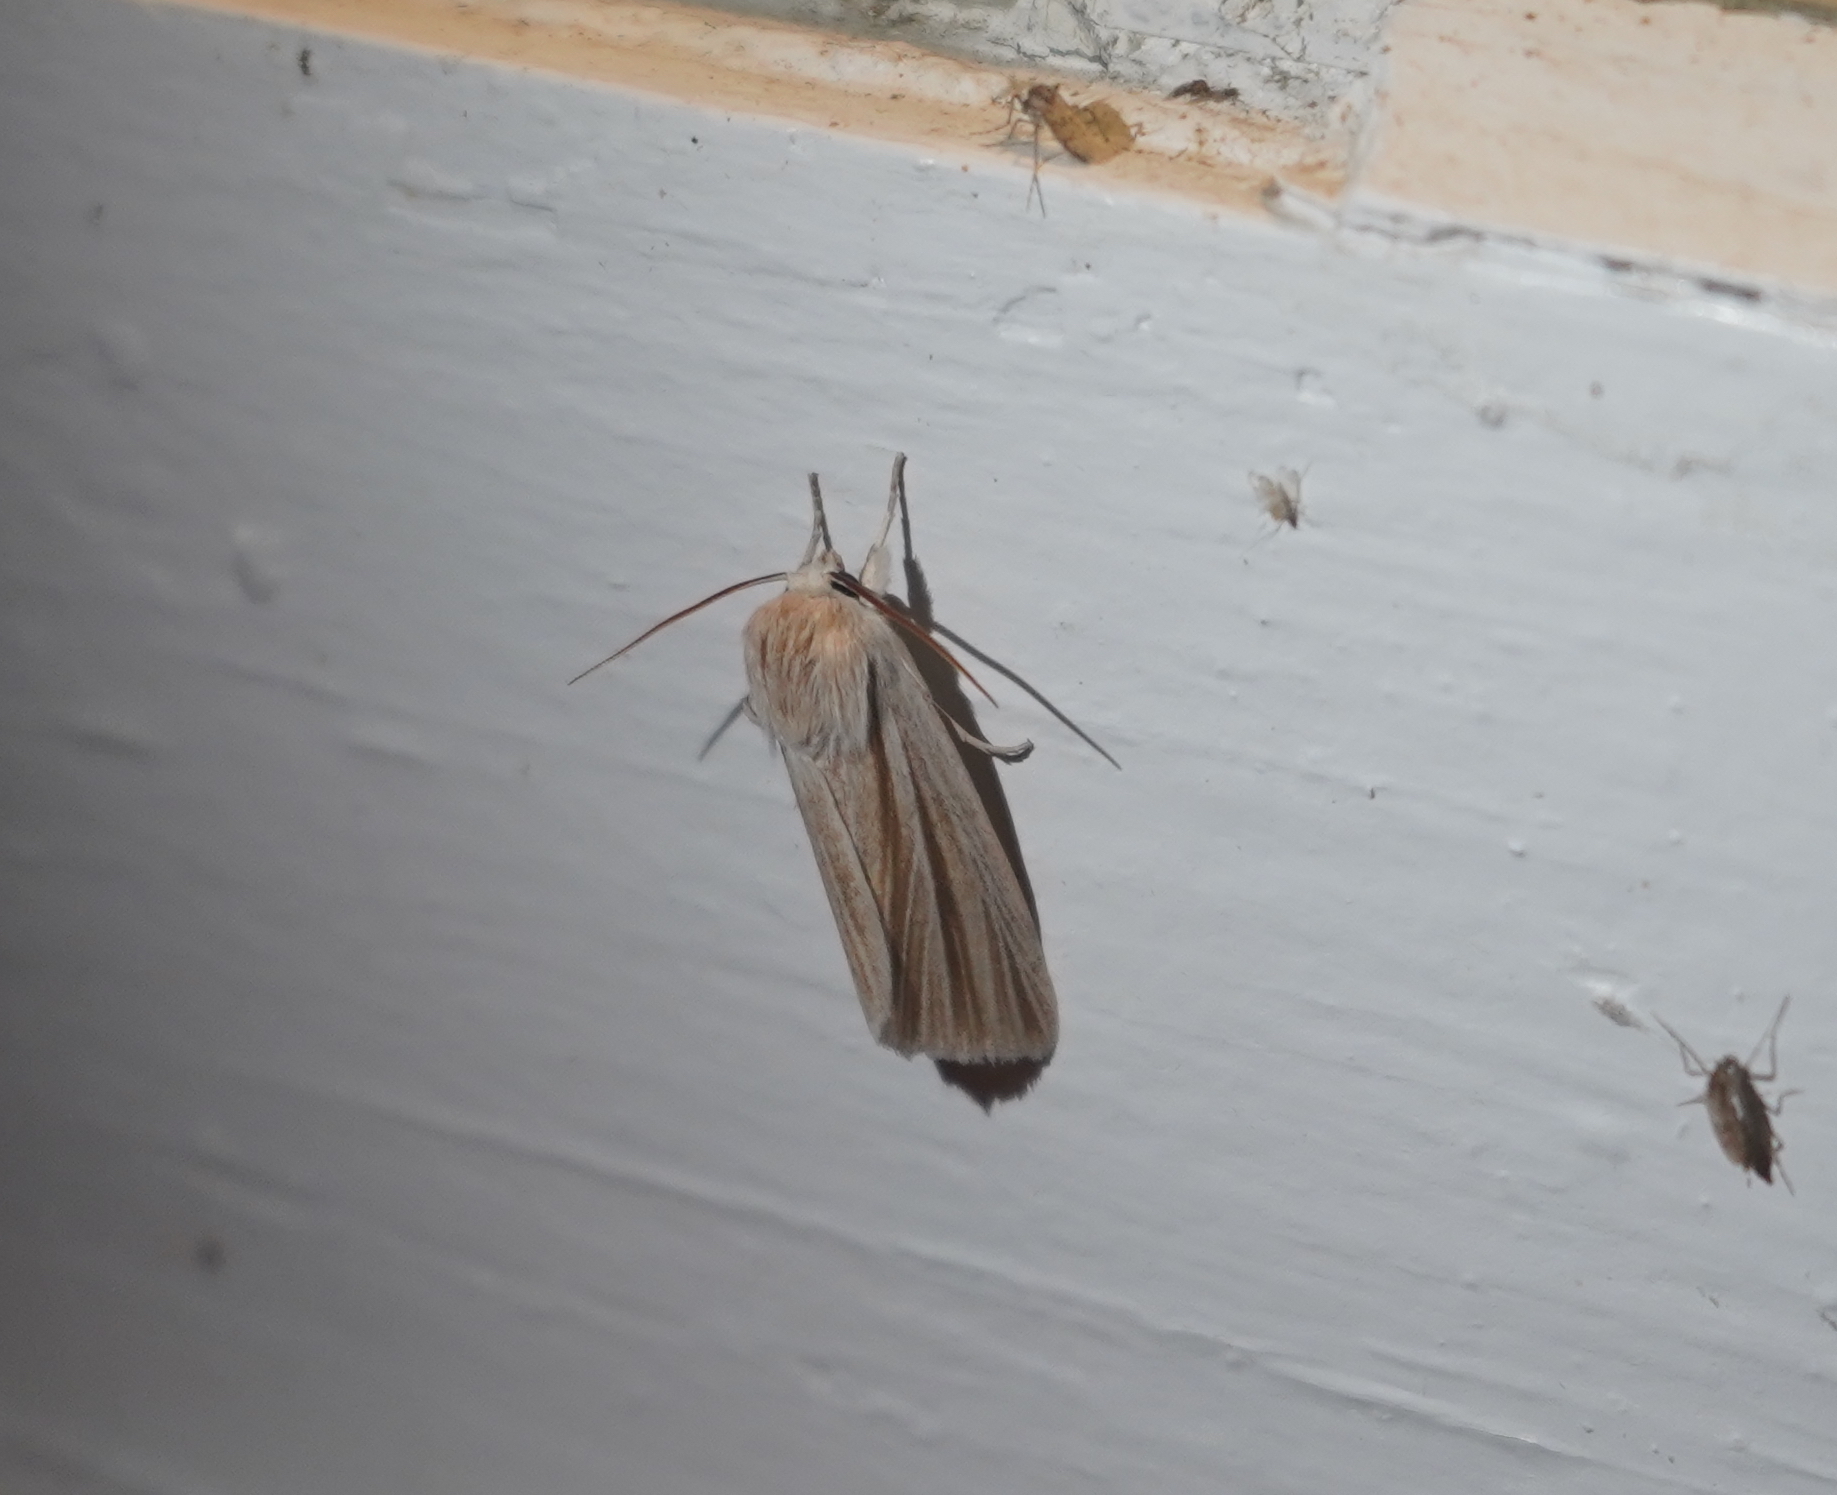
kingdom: Animalia
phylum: Arthropoda
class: Insecta
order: Lepidoptera
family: Noctuidae
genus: Acronicta
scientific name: Acronicta insularis
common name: Henry's marsh moth
